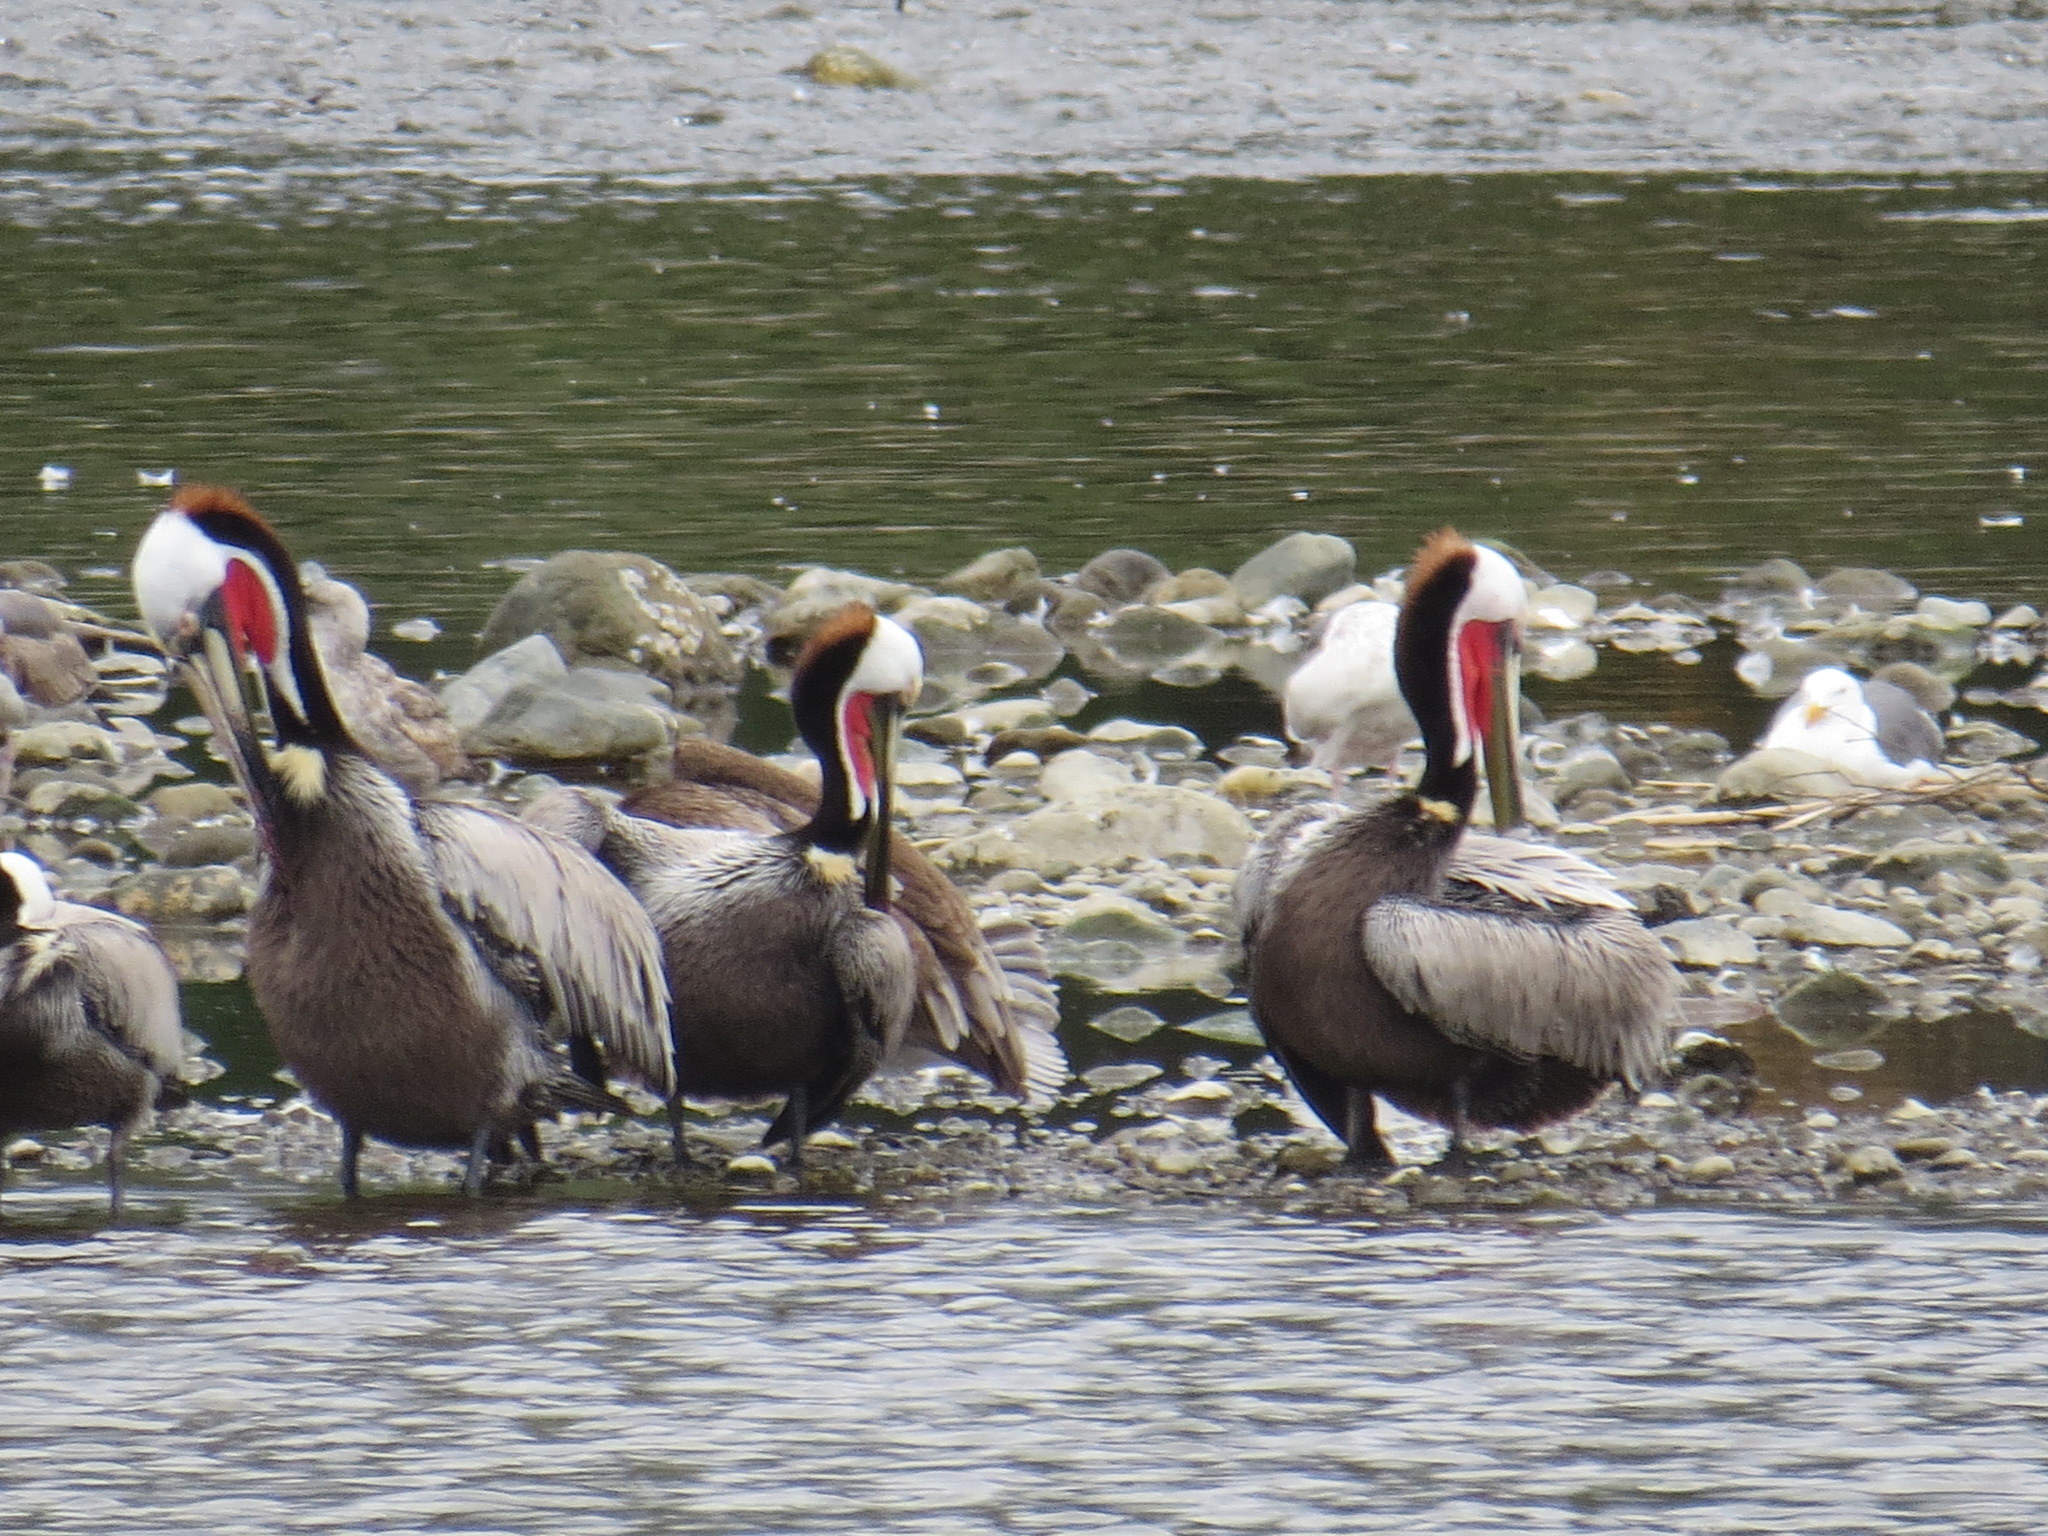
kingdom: Animalia
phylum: Chordata
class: Aves
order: Pelecaniformes
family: Pelecanidae
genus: Pelecanus
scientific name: Pelecanus occidentalis
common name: Brown pelican
